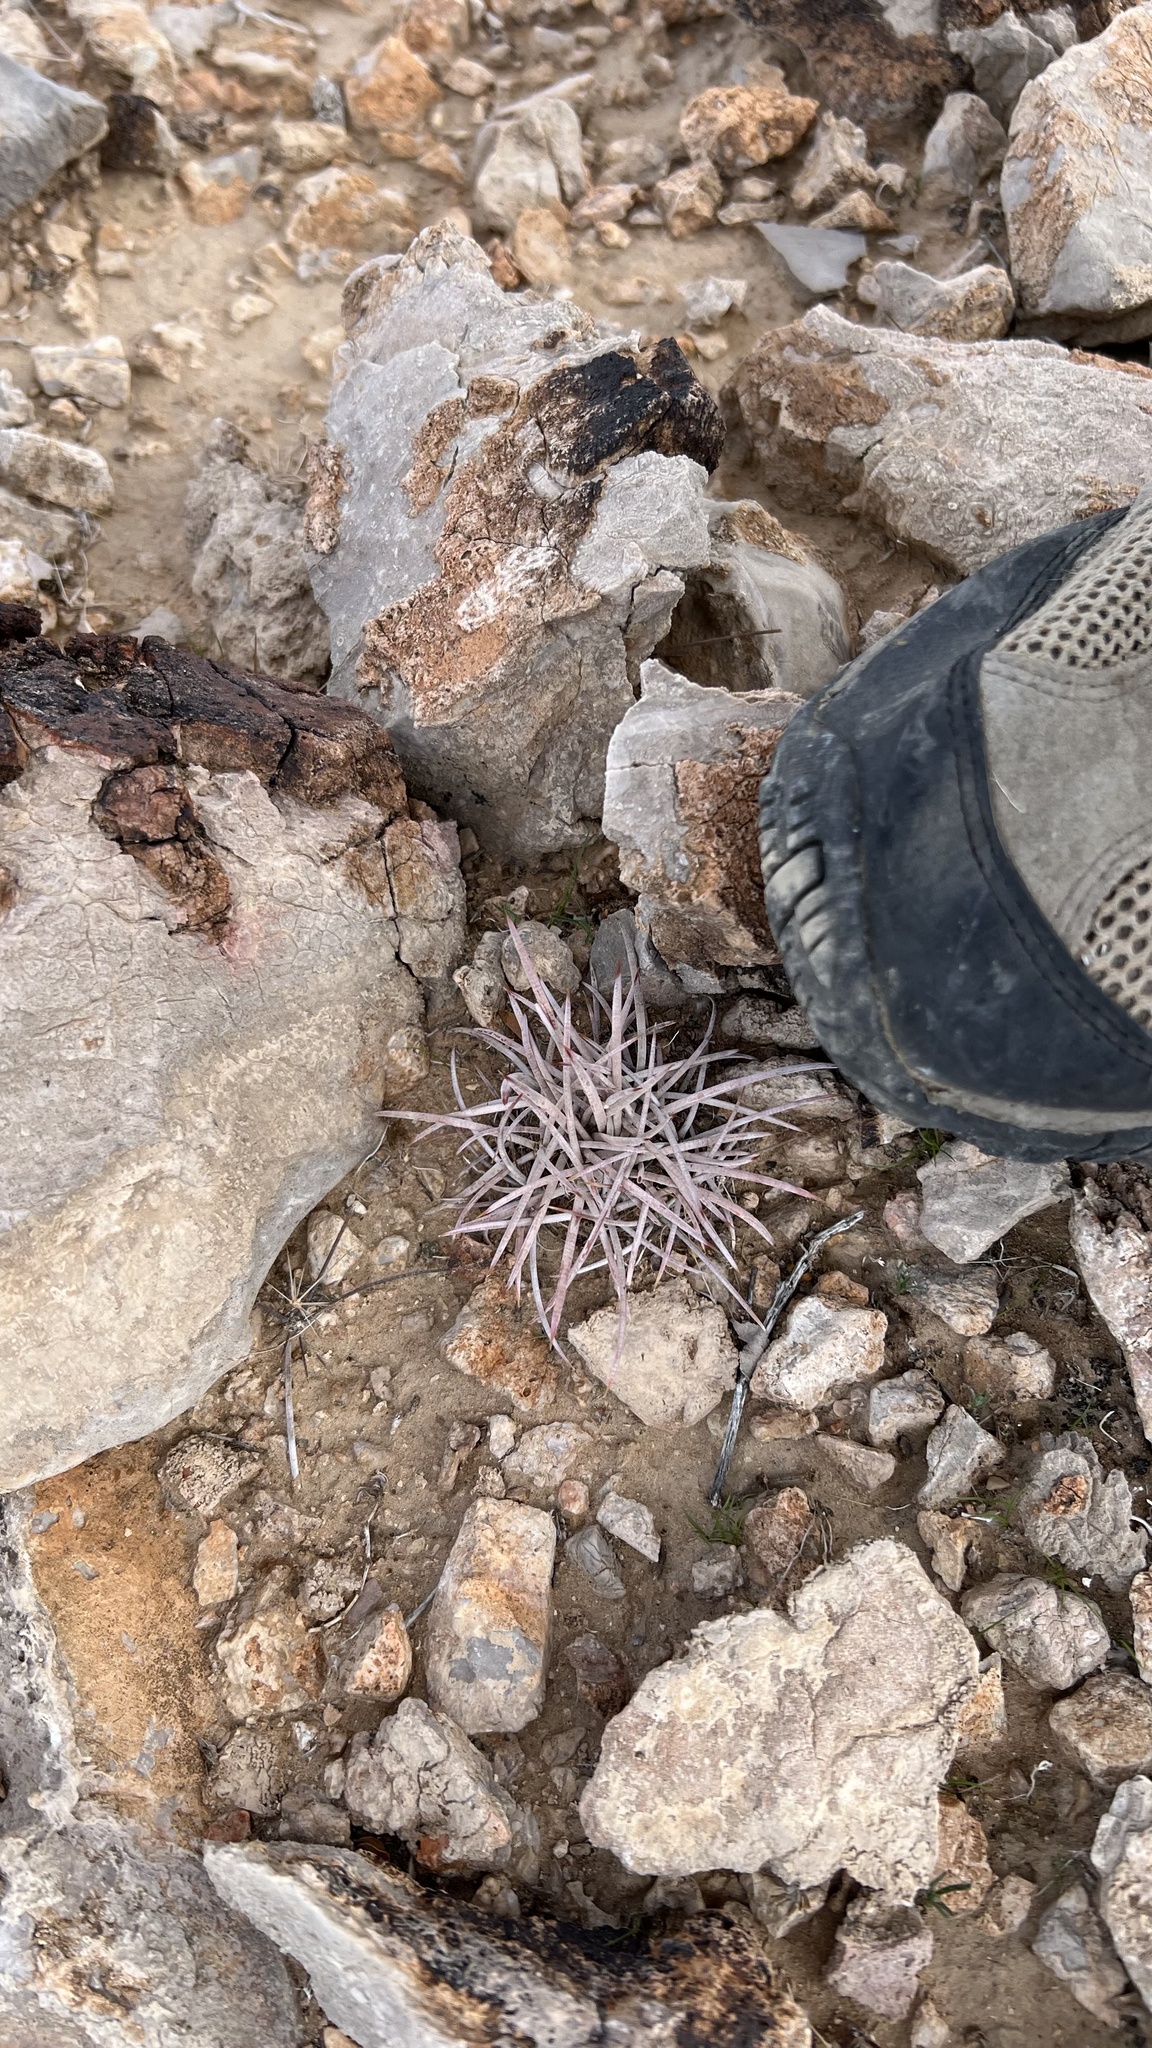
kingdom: Plantae
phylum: Tracheophyta
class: Magnoliopsida
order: Caryophyllales
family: Cactaceae
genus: Echinocactus
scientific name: Echinocactus polycephalus
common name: Cottontop cactus
